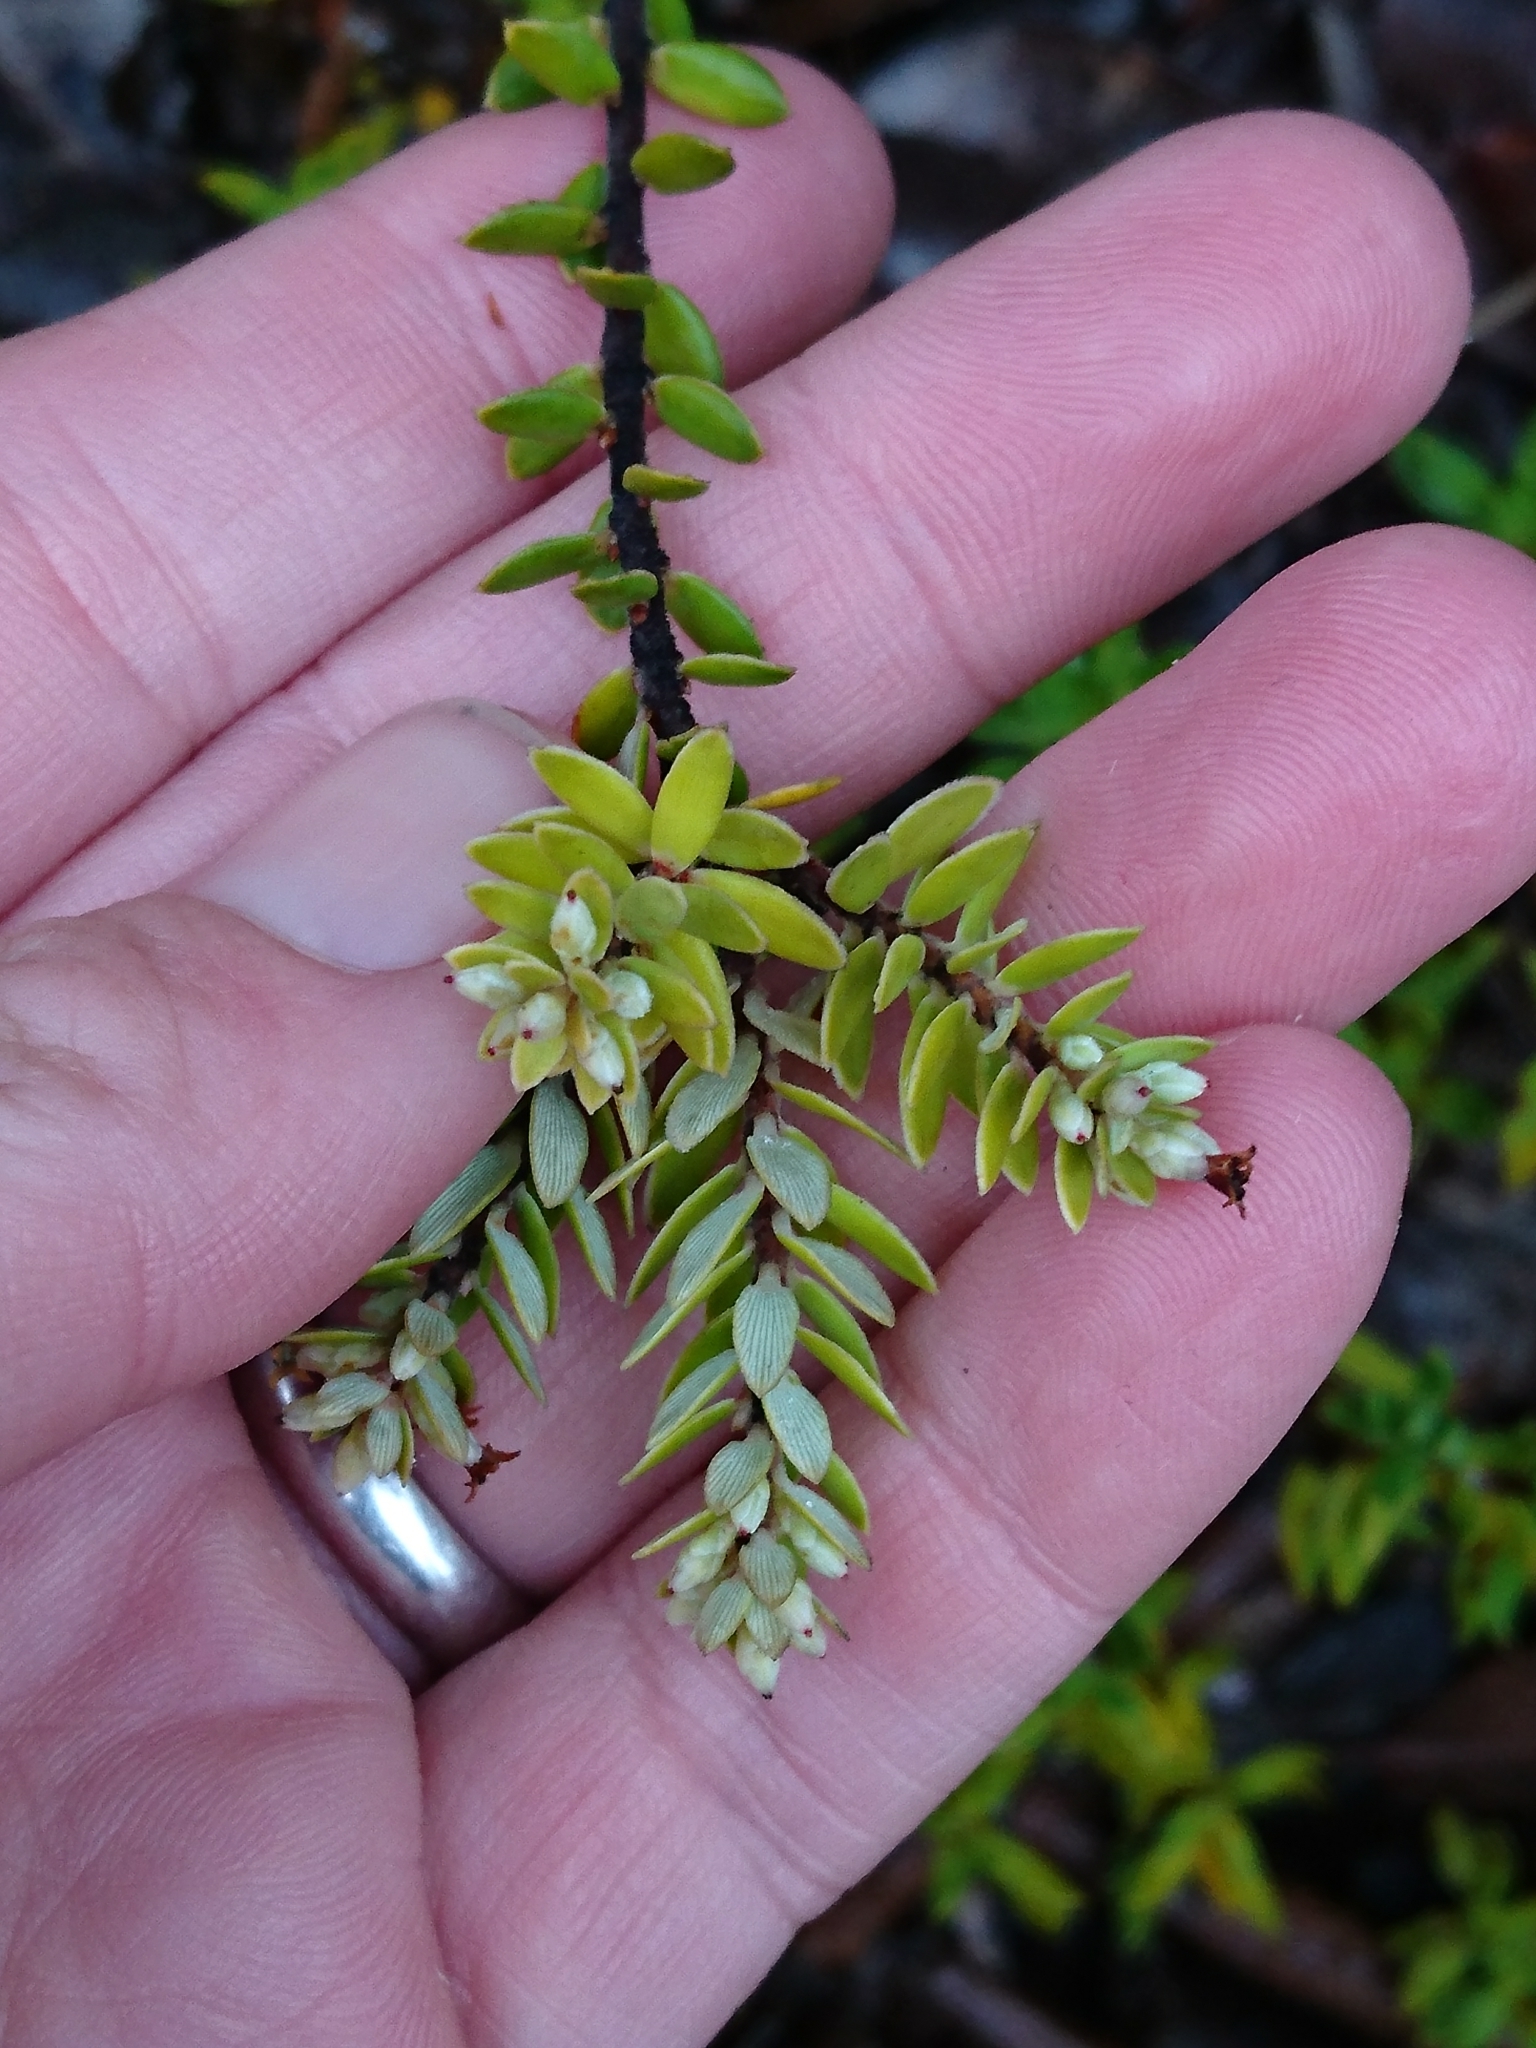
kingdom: Plantae
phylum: Tracheophyta
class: Magnoliopsida
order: Ericales
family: Ericaceae
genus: Leptecophylla
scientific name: Leptecophylla tameiameiae
